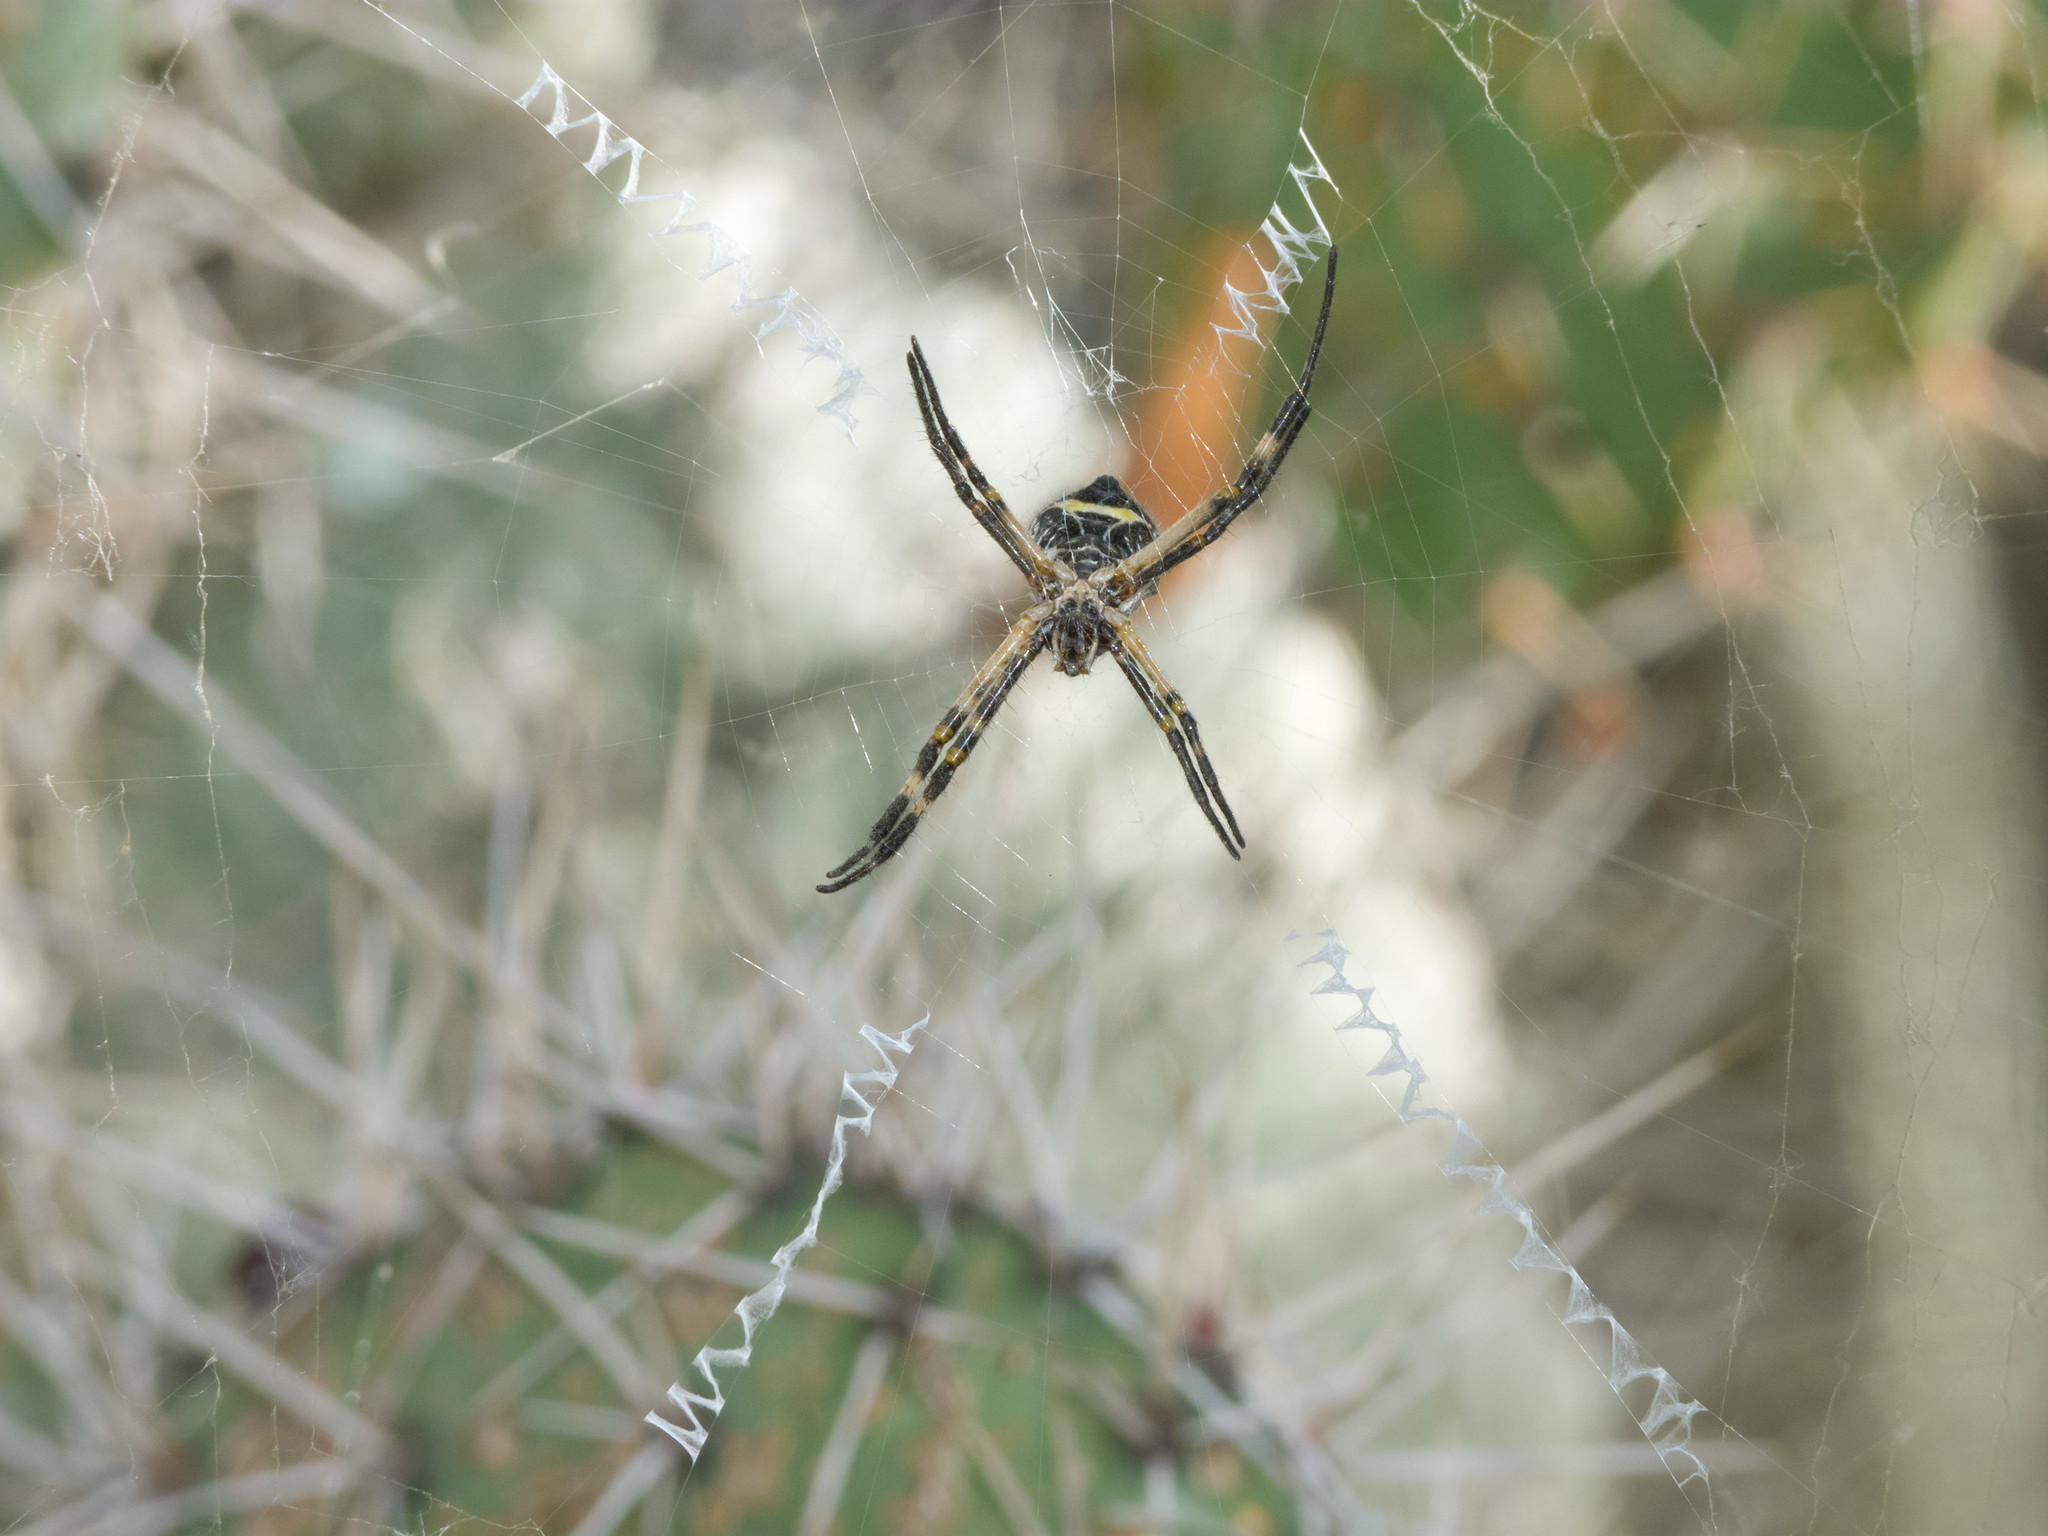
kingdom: Animalia
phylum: Arthropoda
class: Arachnida
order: Araneae
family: Araneidae
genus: Argiope
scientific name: Argiope argentata
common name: Orb weavers
